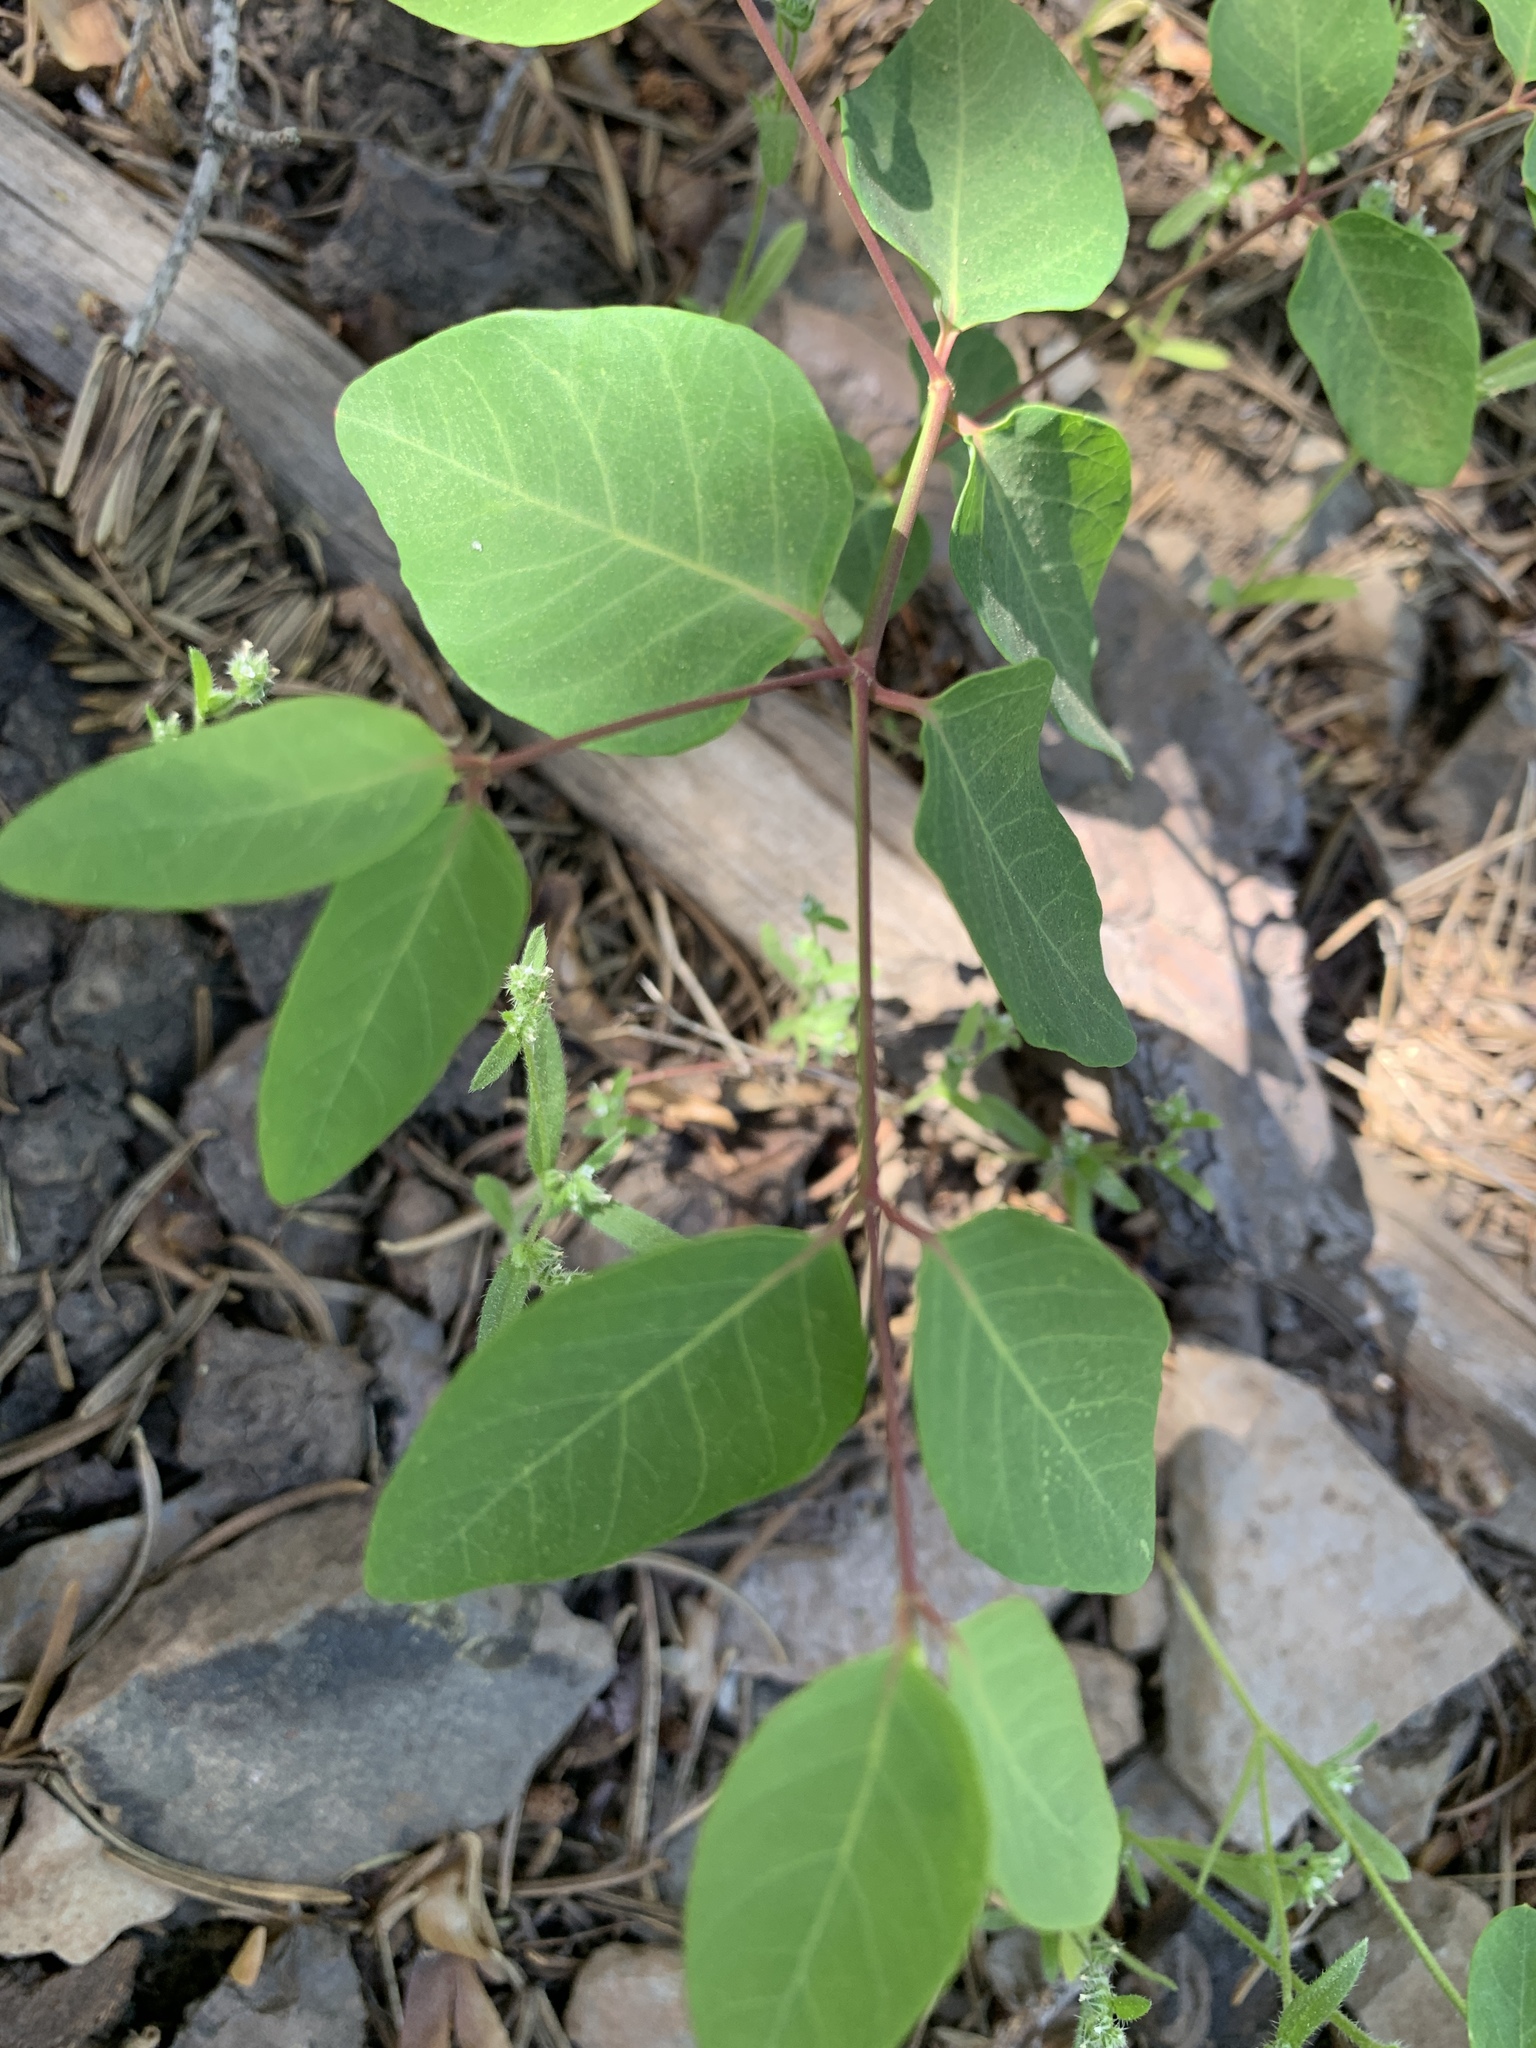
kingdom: Plantae
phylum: Tracheophyta
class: Magnoliopsida
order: Gentianales
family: Apocynaceae
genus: Apocynum
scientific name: Apocynum androsaemifolium
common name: Spreading dogbane
